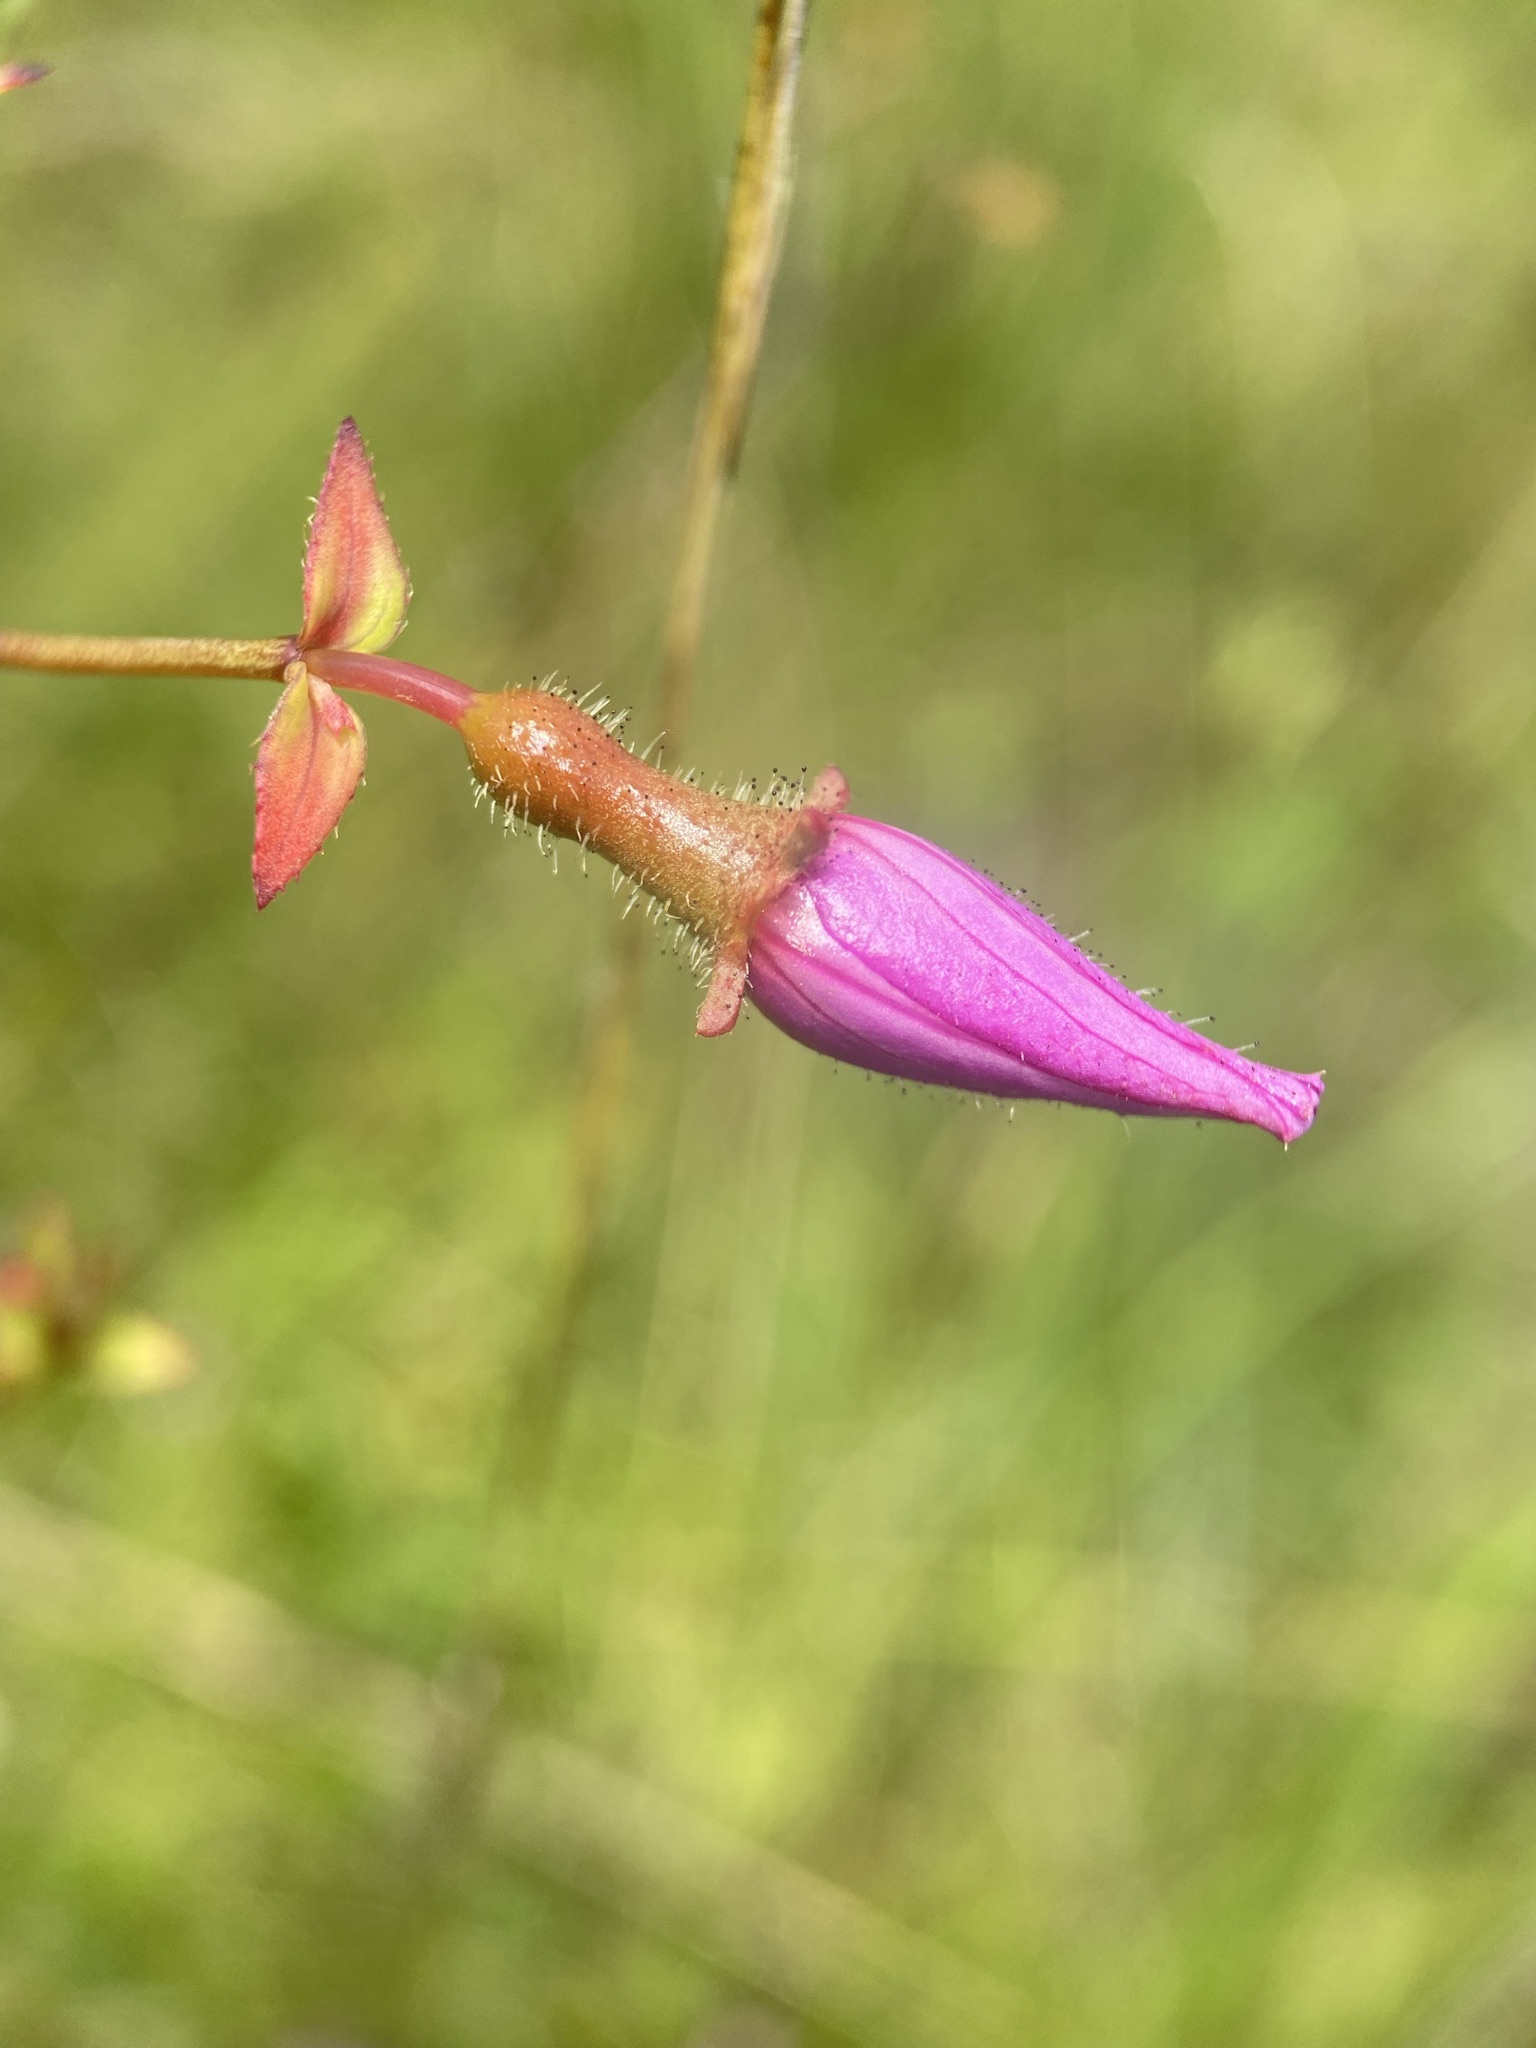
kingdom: Plantae
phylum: Tracheophyta
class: Magnoliopsida
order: Myrtales
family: Melastomataceae
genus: Rhexia
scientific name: Rhexia alifanus
